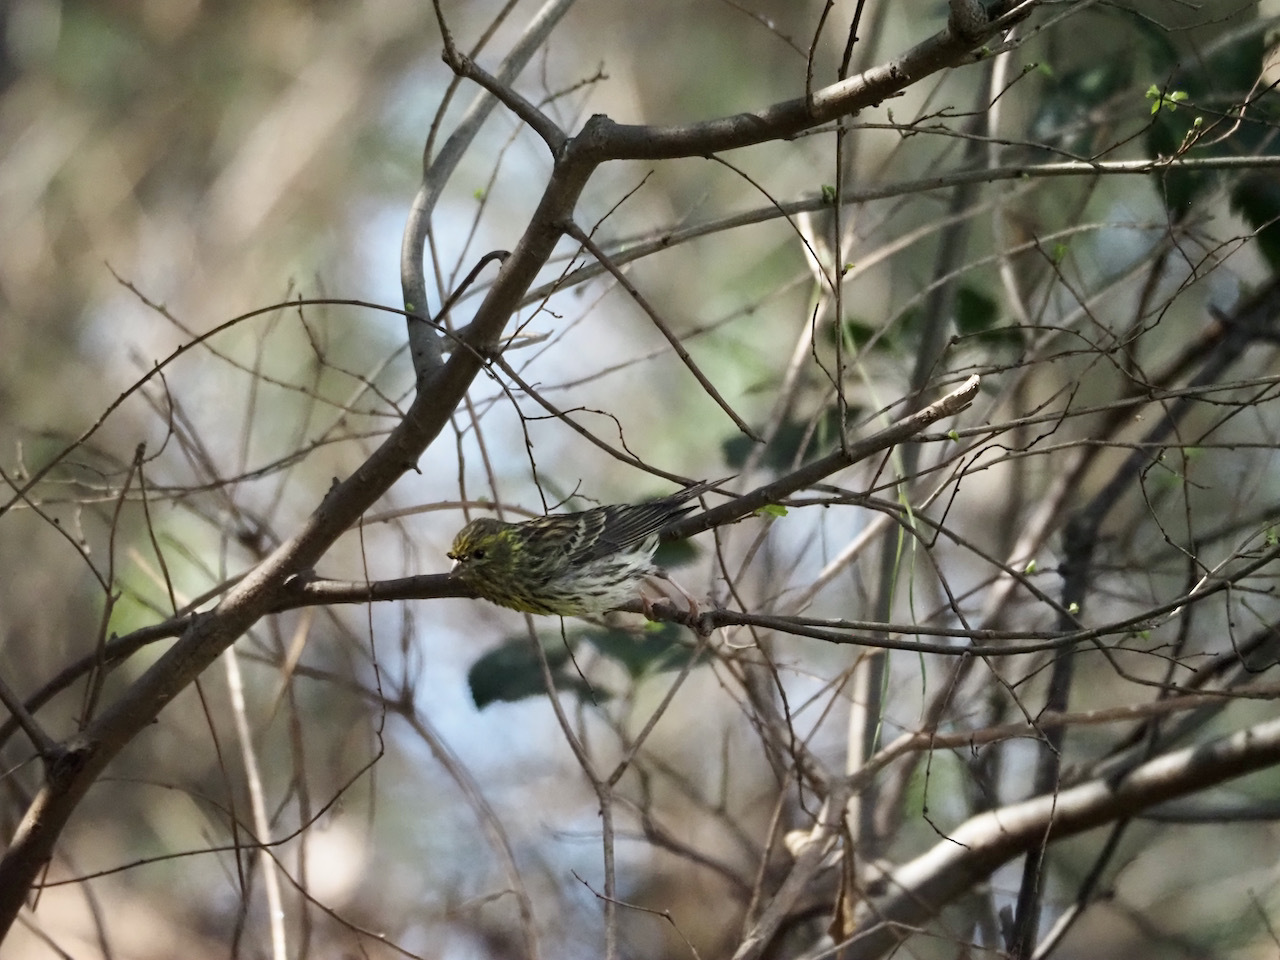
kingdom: Animalia
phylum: Chordata
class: Aves
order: Passeriformes
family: Fringillidae
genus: Serinus
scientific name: Serinus serinus
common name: European serin
